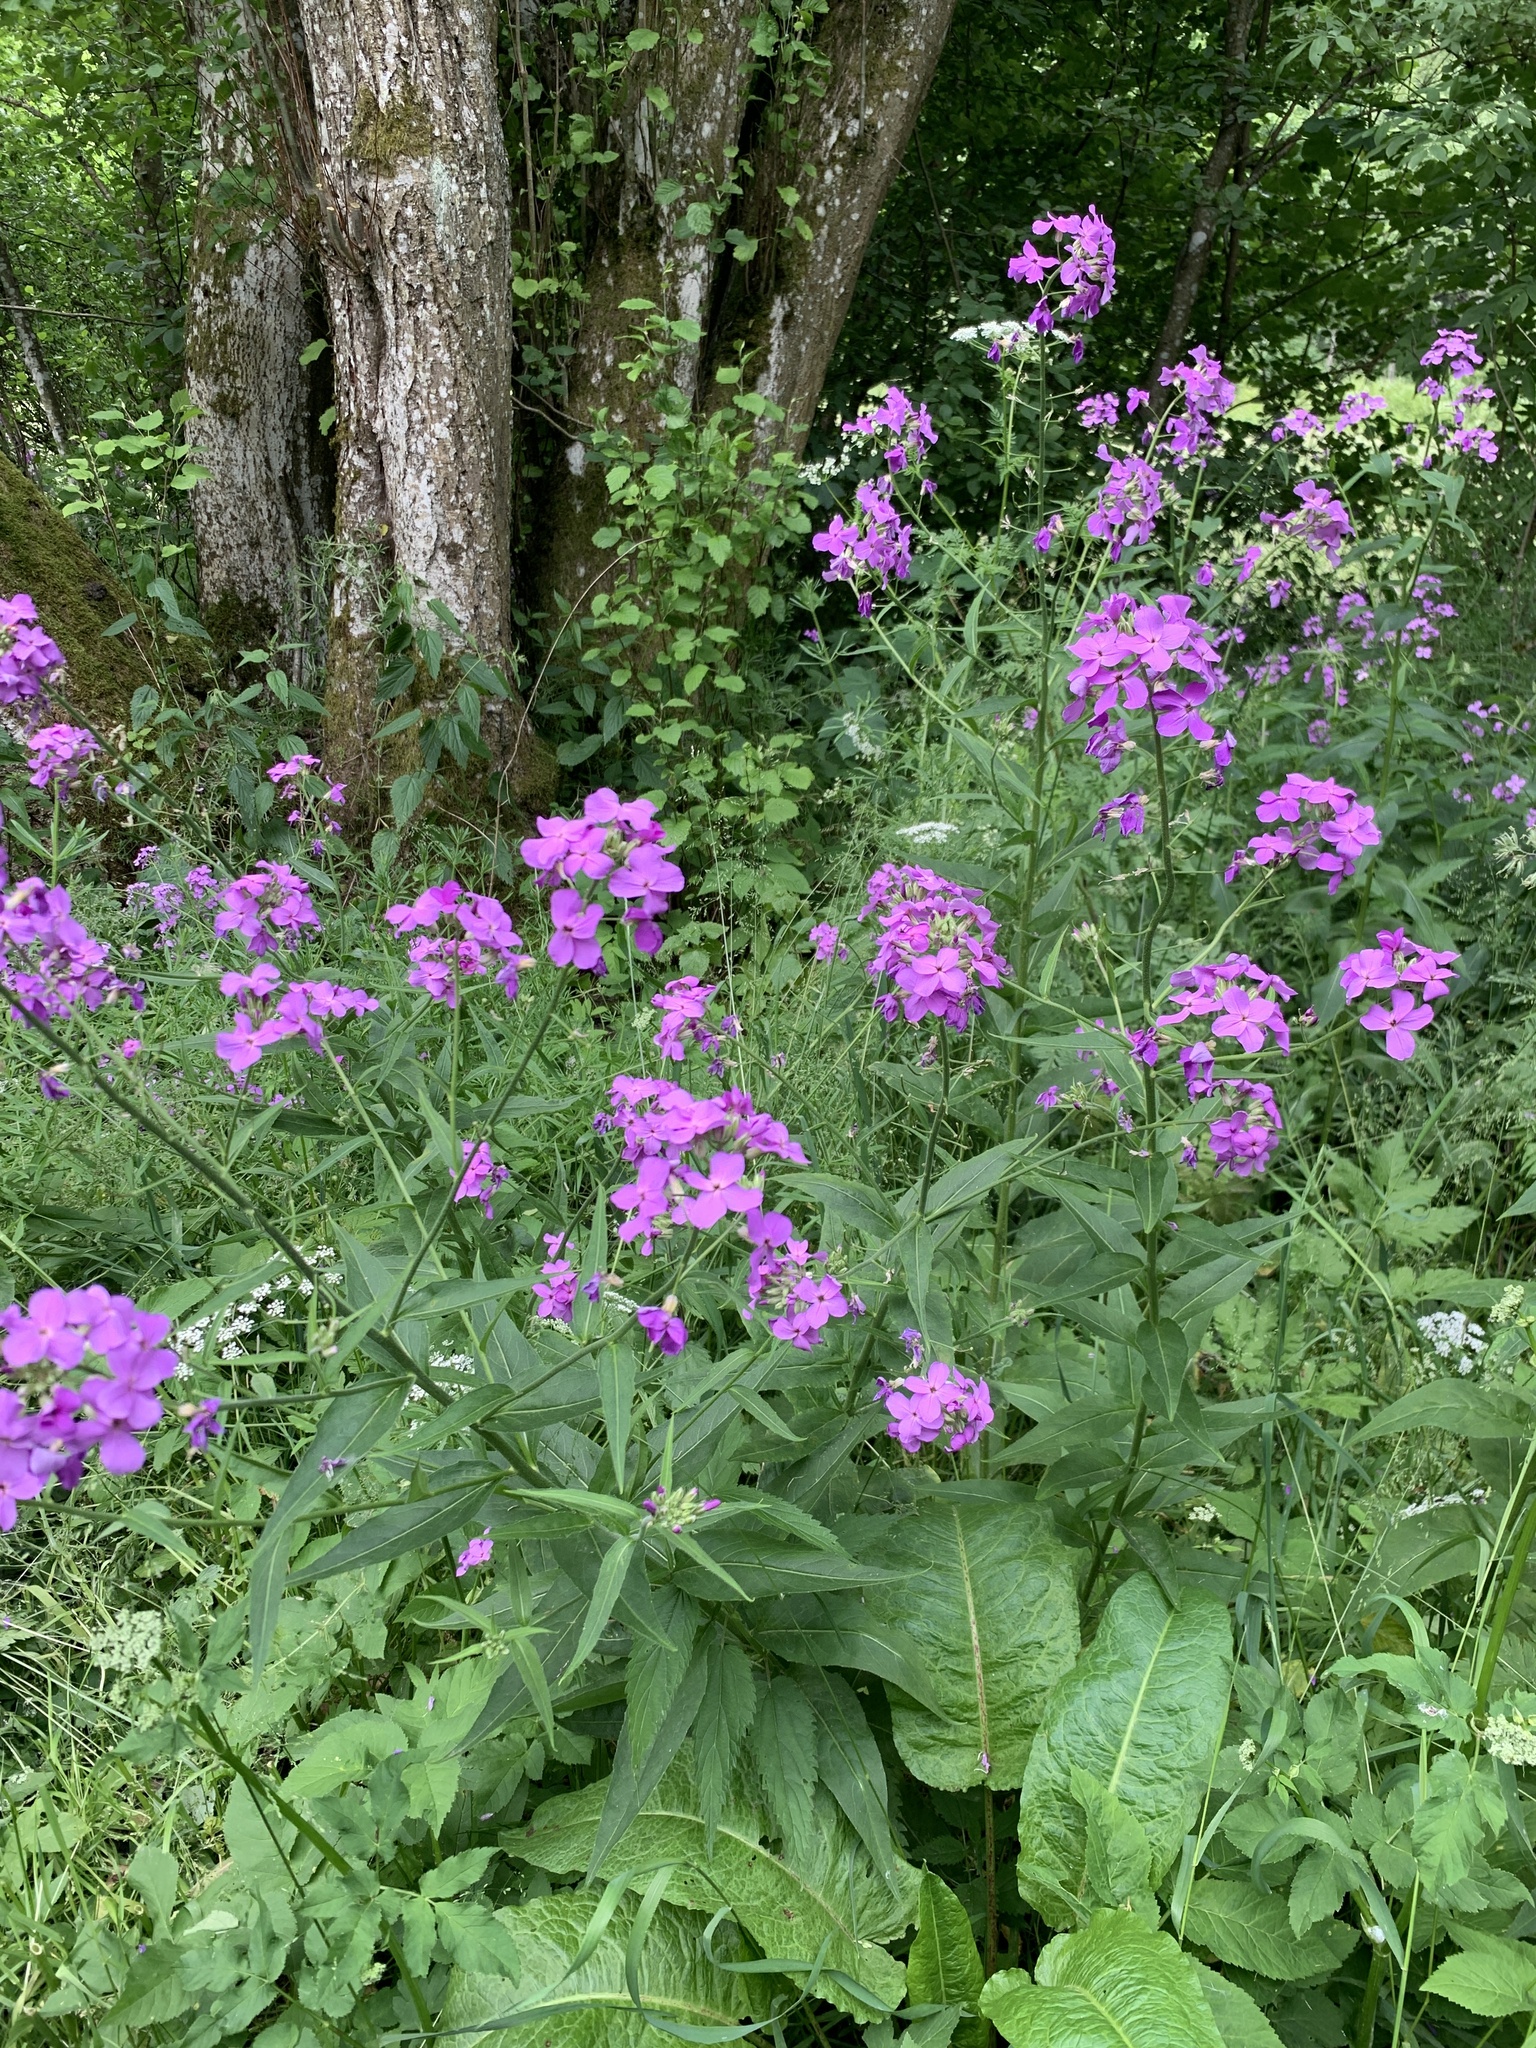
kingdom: Plantae
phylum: Tracheophyta
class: Magnoliopsida
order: Brassicales
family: Brassicaceae
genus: Hesperis
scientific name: Hesperis matronalis
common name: Dame's-violet
